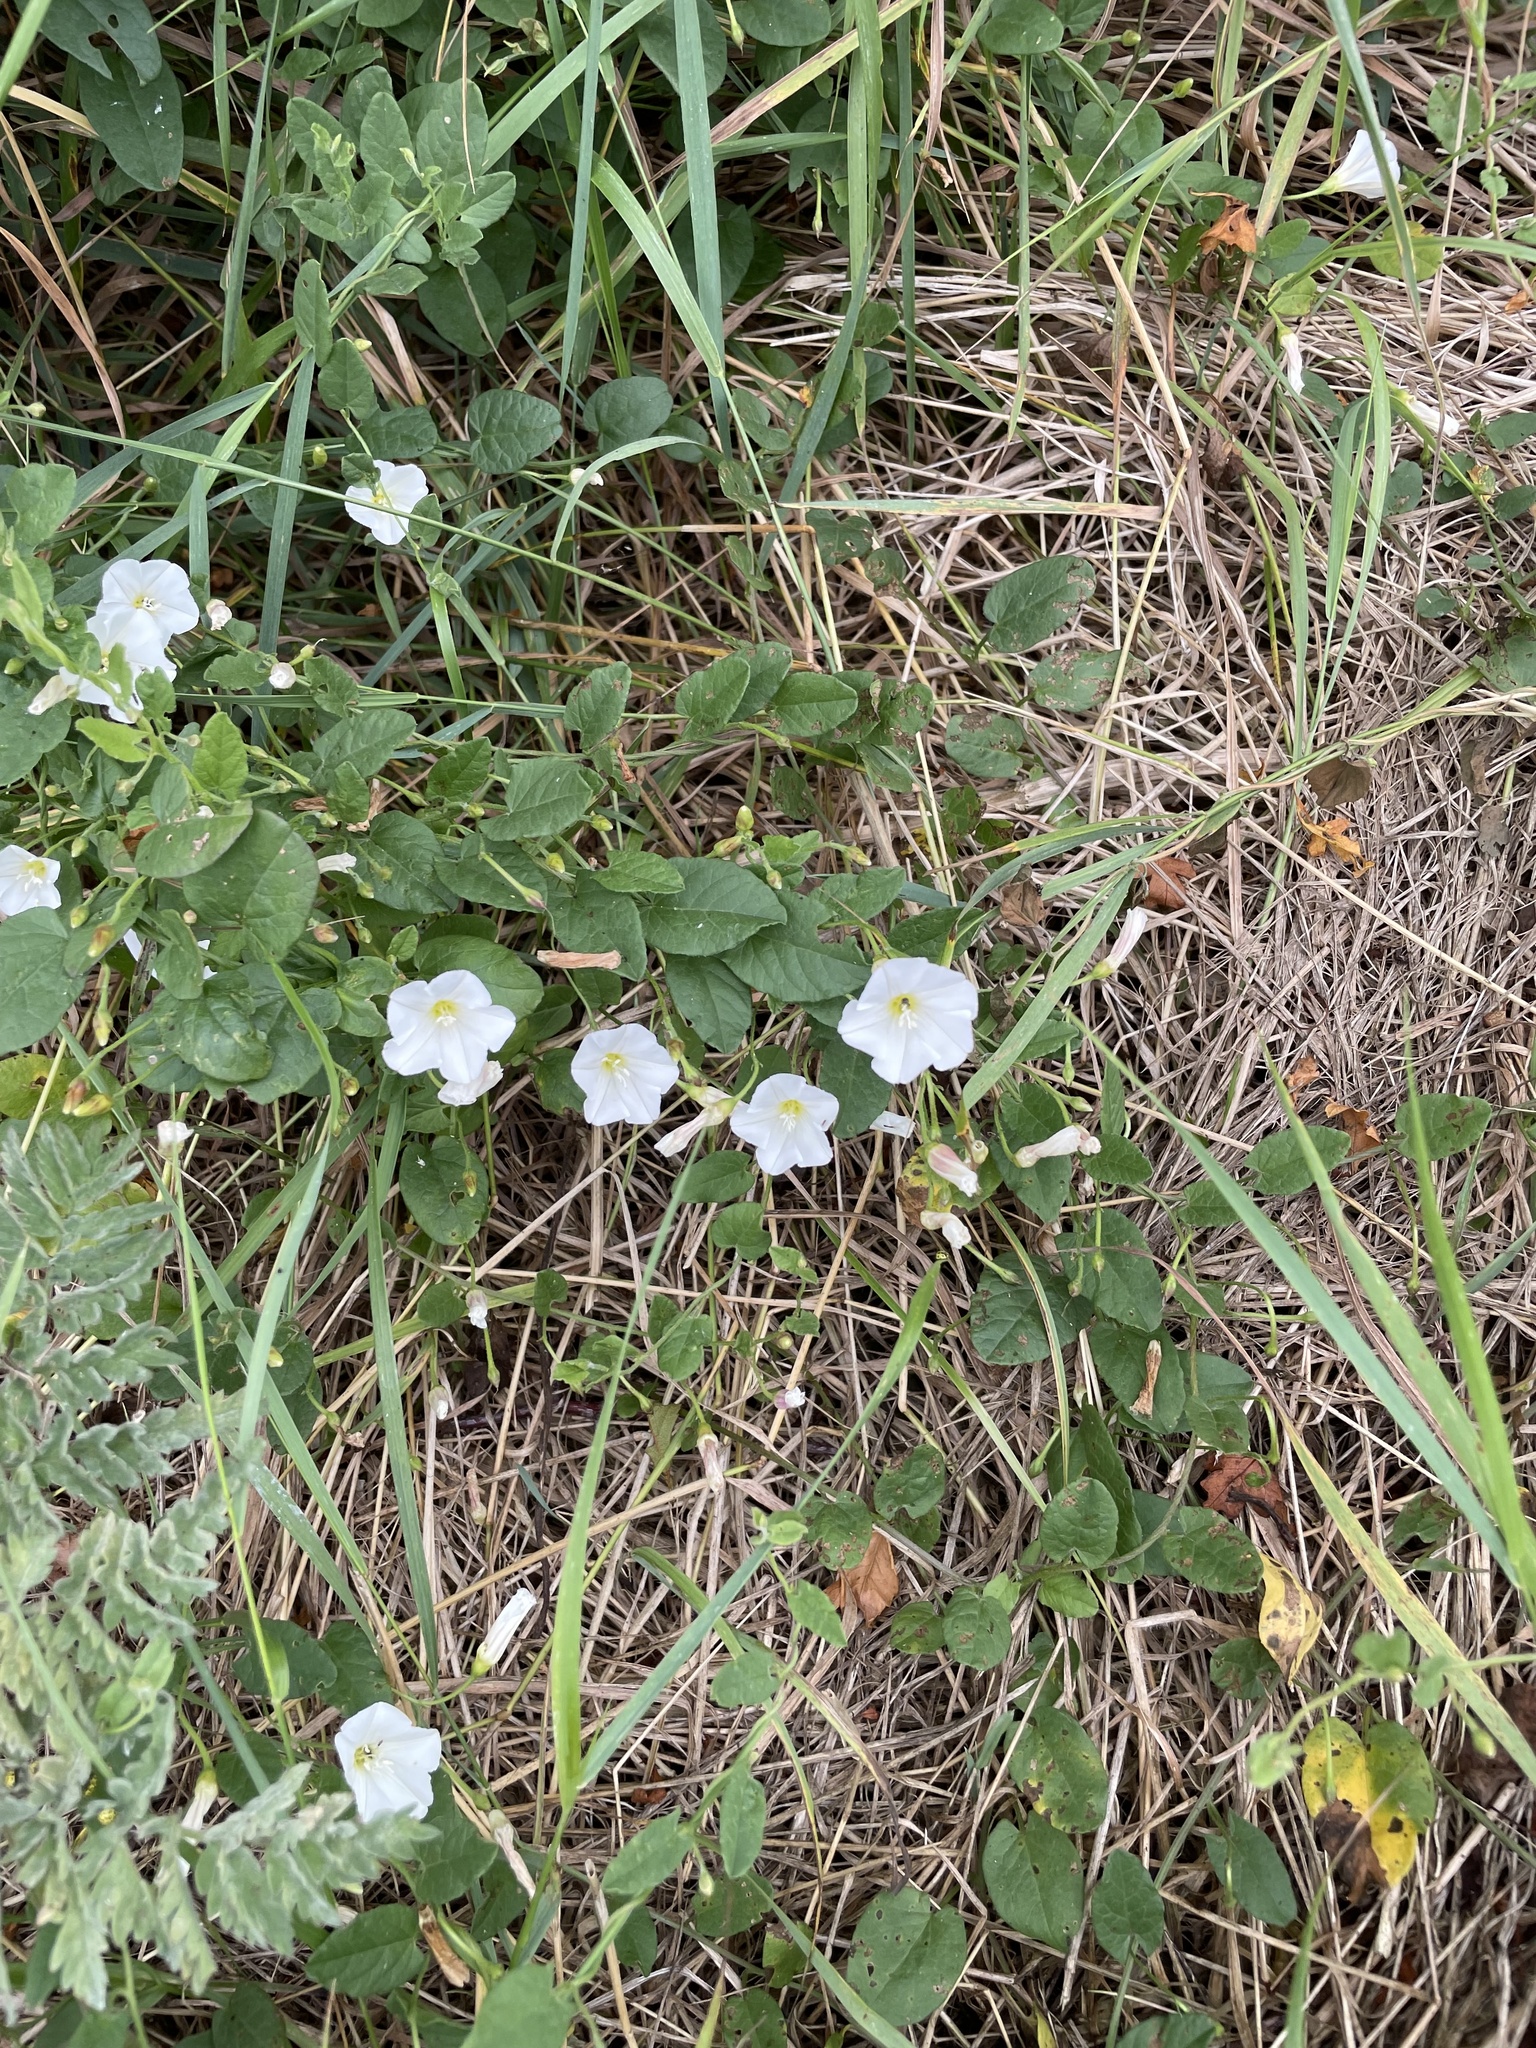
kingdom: Plantae
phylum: Tracheophyta
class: Magnoliopsida
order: Solanales
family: Convolvulaceae
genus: Convolvulus
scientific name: Convolvulus arvensis
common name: Field bindweed
